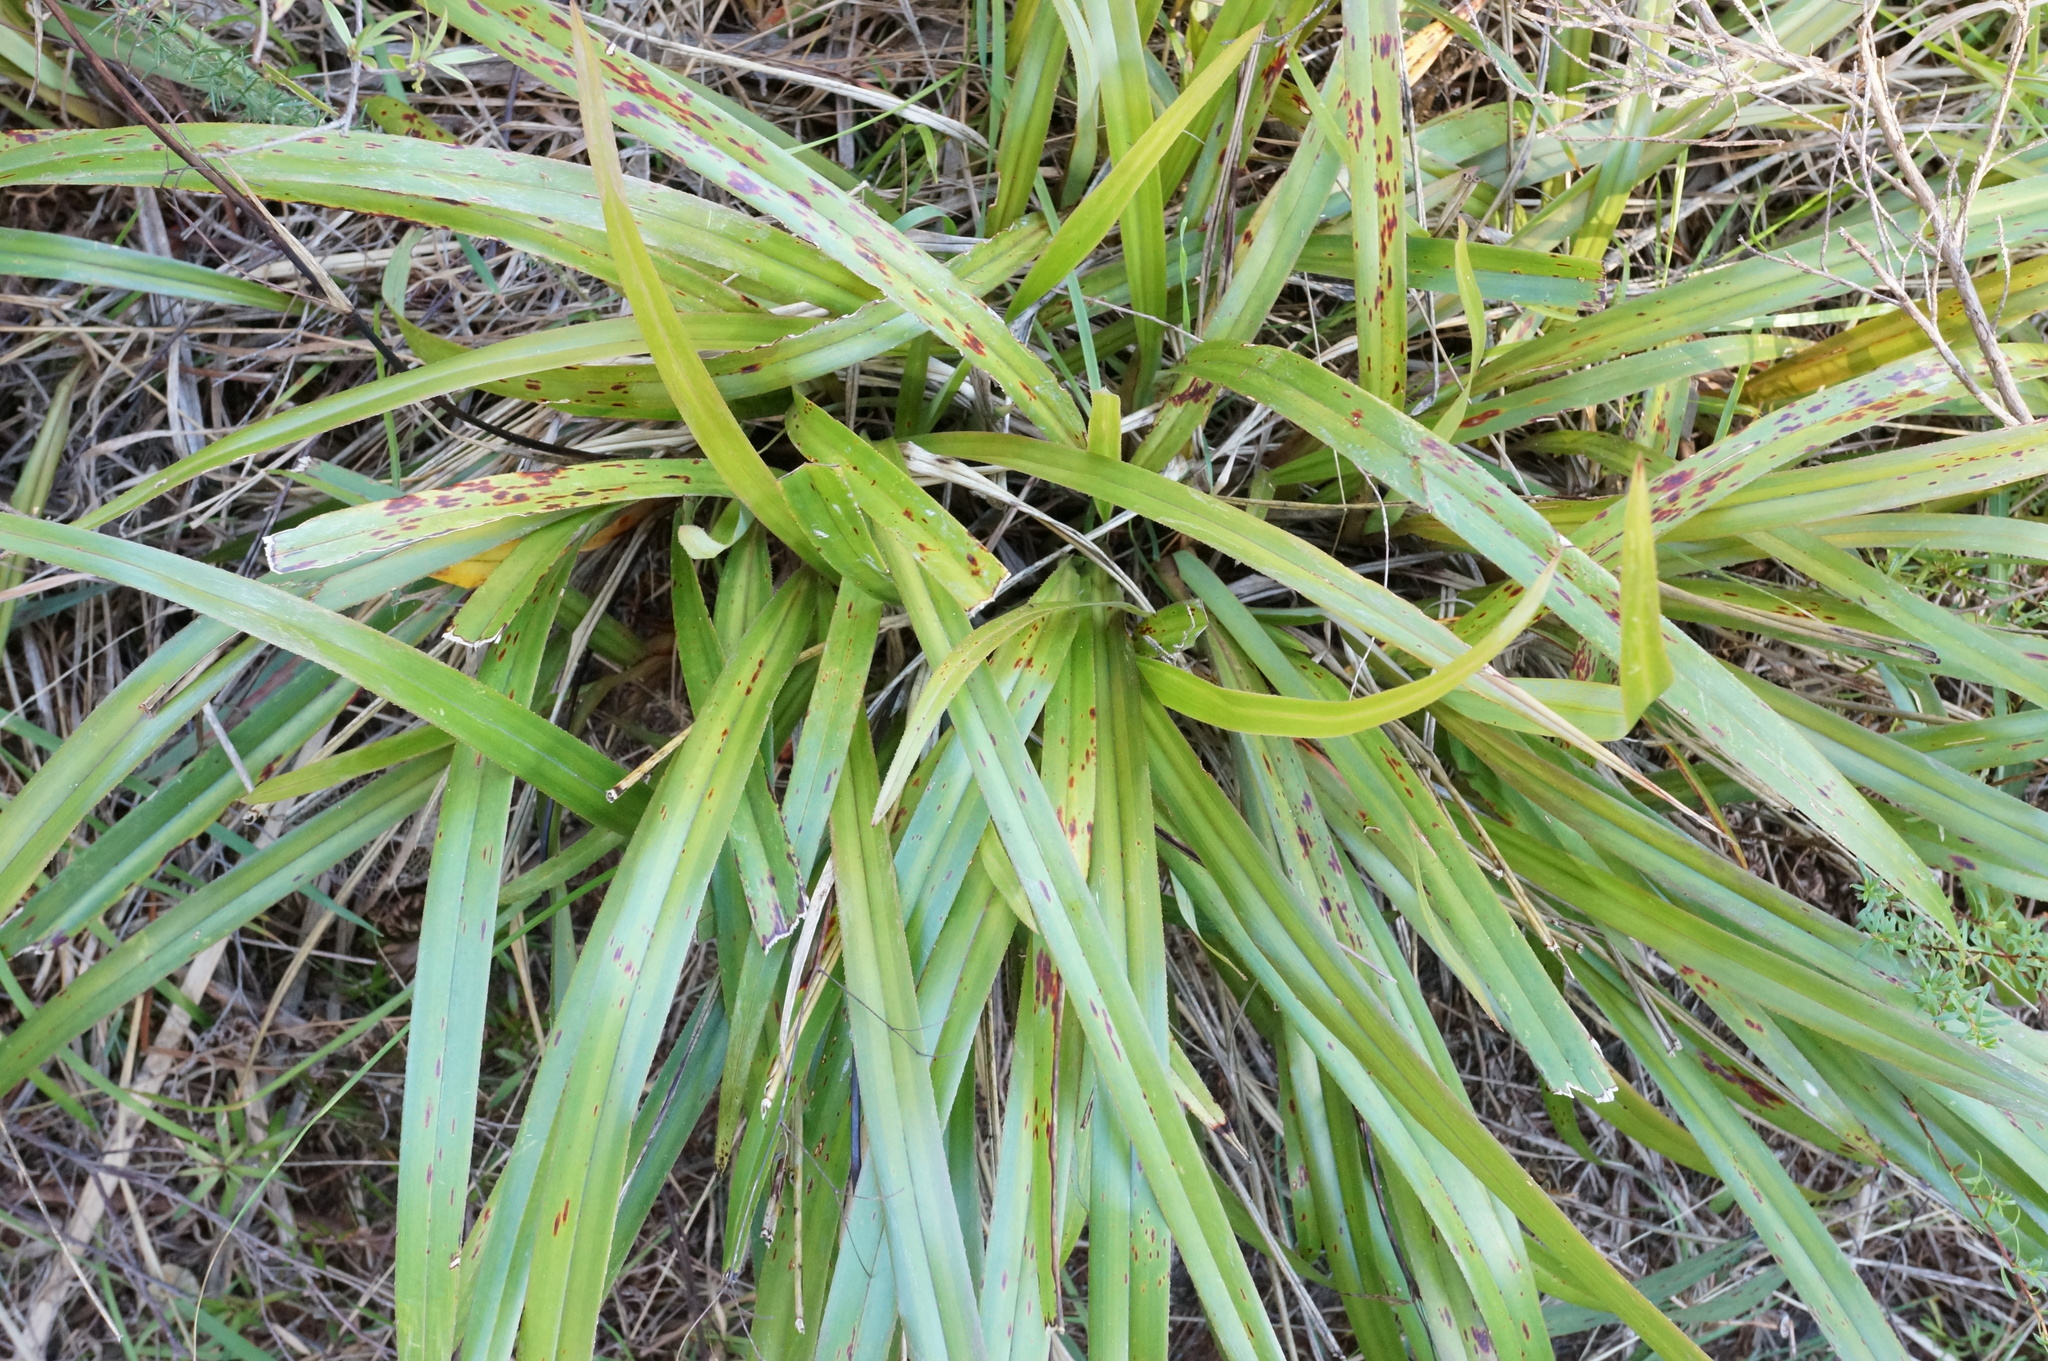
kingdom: Plantae
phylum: Tracheophyta
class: Liliopsida
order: Asparagales
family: Asphodelaceae
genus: Dianella
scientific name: Dianella nigra
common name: New zealand-blueberry
